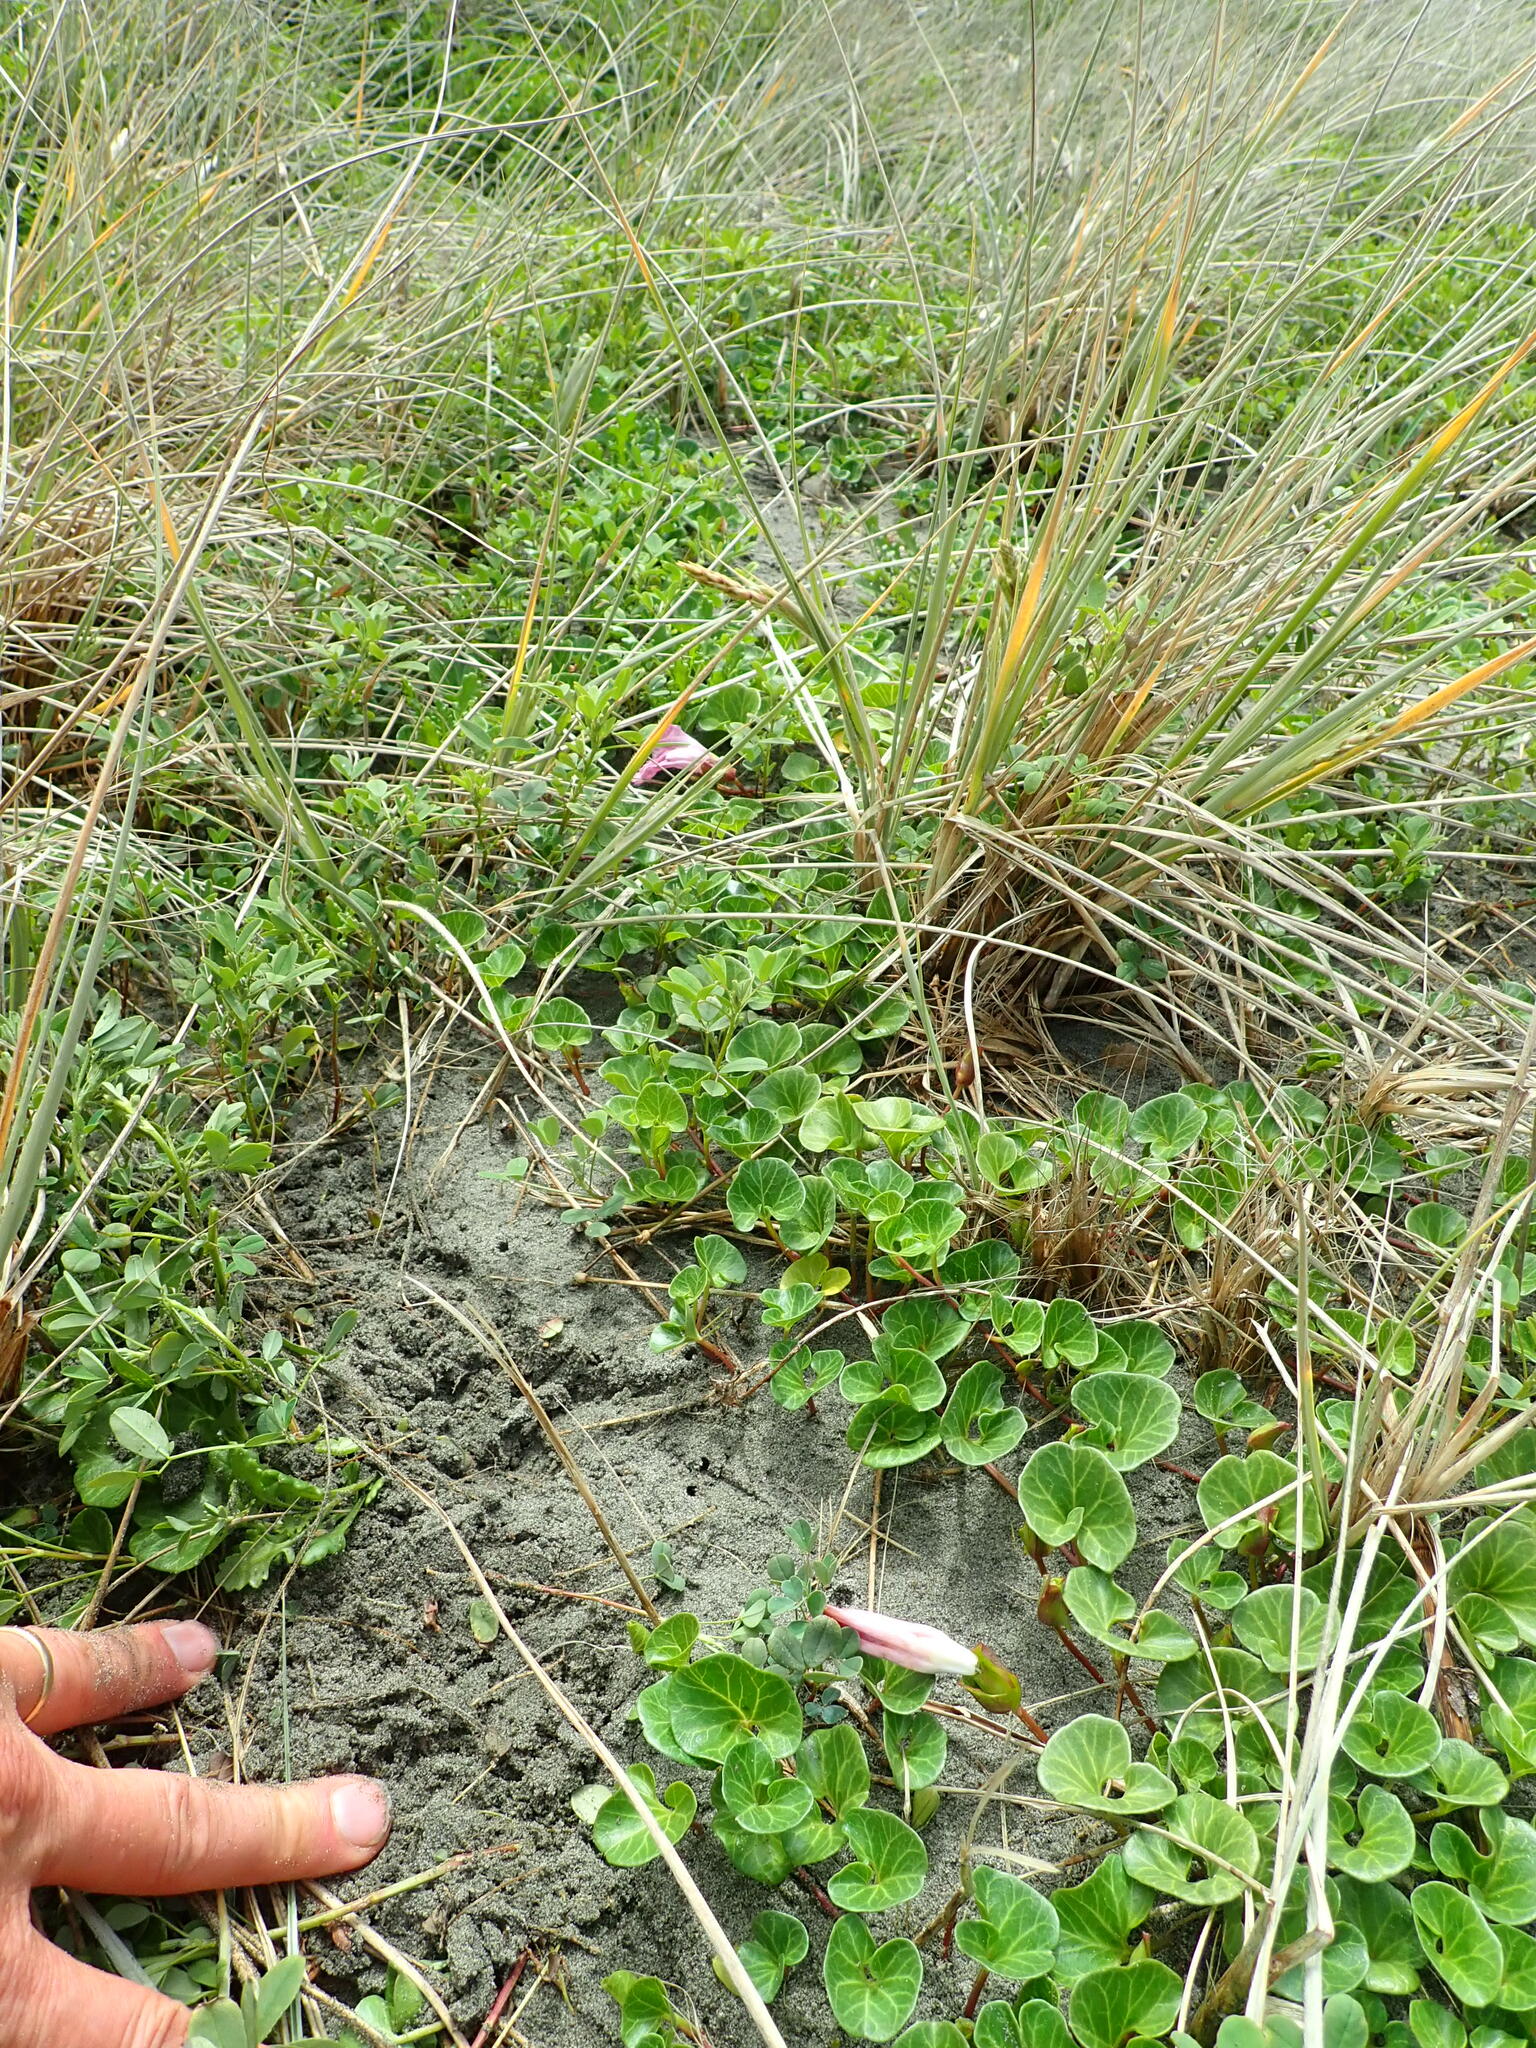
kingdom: Plantae
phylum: Tracheophyta
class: Magnoliopsida
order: Solanales
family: Convolvulaceae
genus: Calystegia
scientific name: Calystegia soldanella
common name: Sea bindweed
